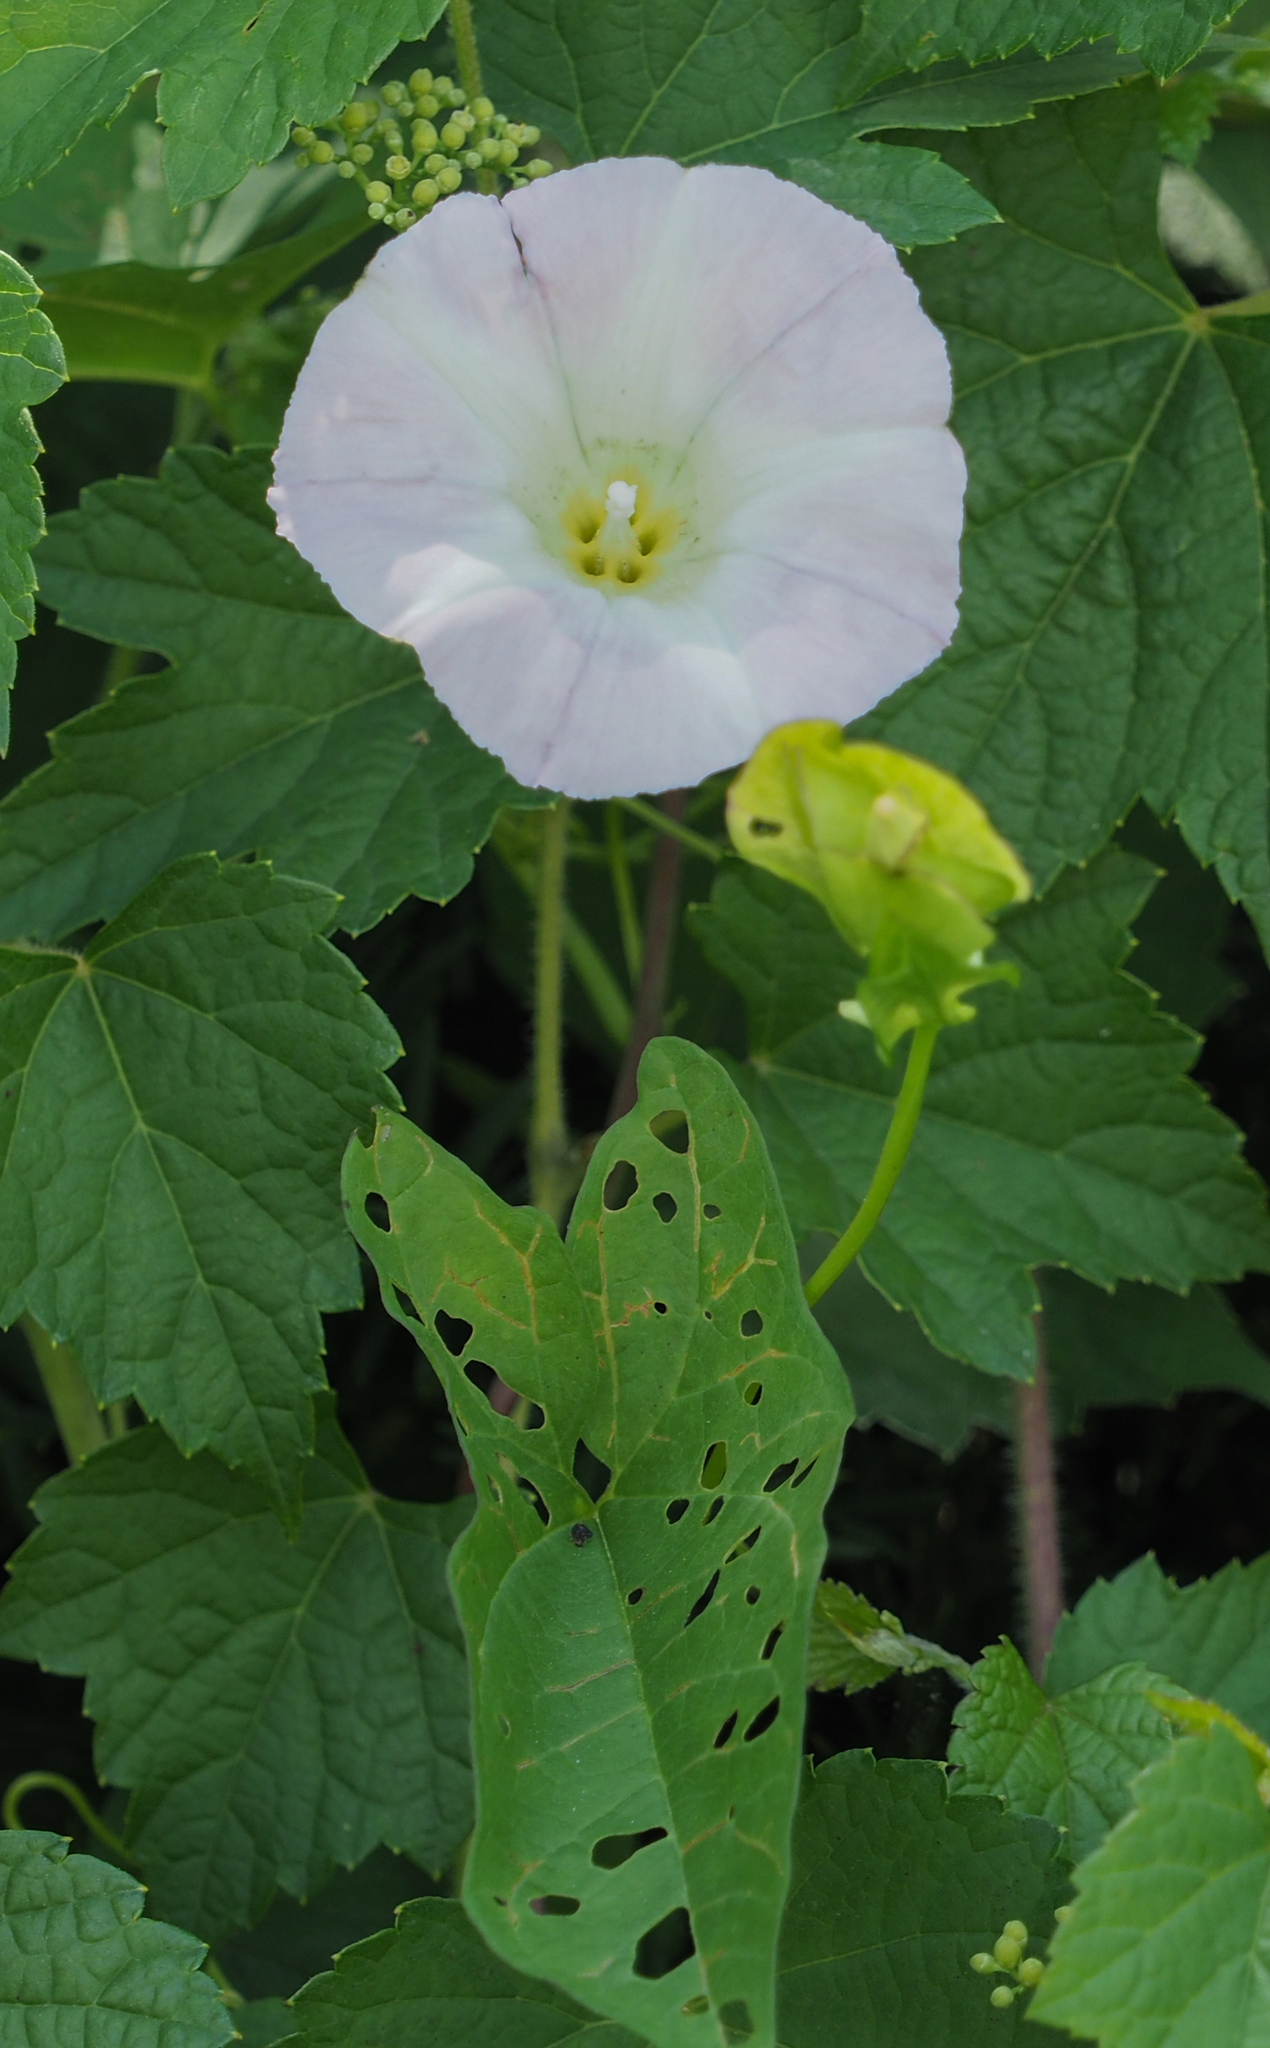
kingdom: Plantae
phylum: Tracheophyta
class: Magnoliopsida
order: Solanales
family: Convolvulaceae
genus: Calystegia
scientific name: Calystegia sepium
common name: Hedge bindweed
